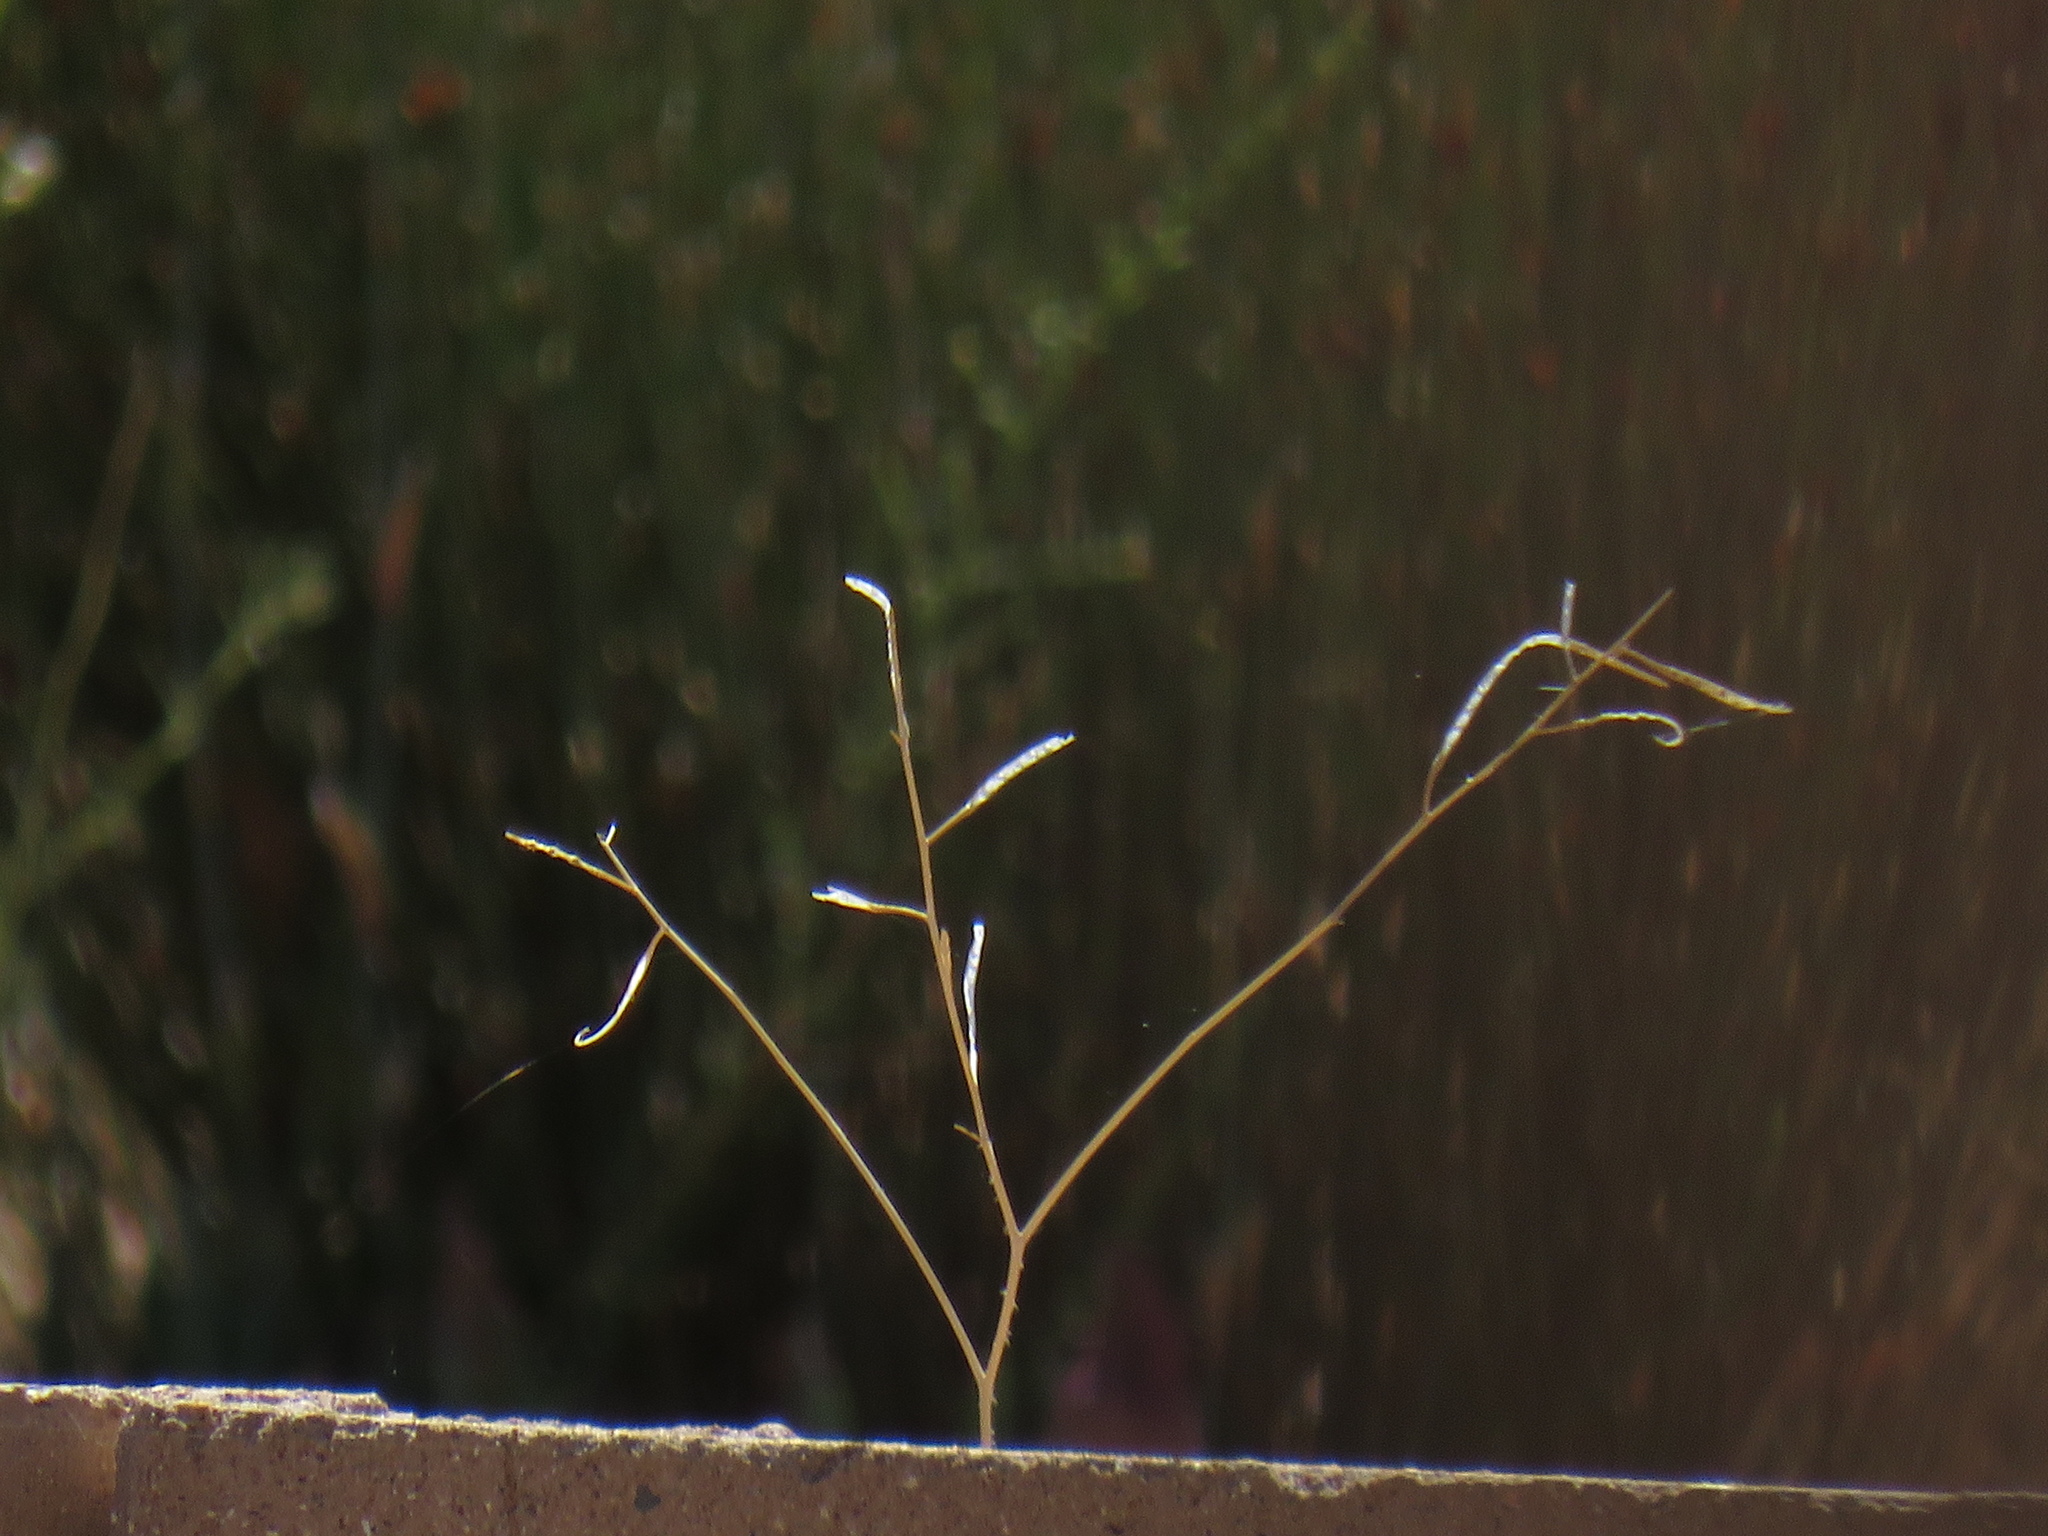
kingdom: Plantae
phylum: Tracheophyta
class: Magnoliopsida
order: Brassicales
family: Brassicaceae
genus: Brassica
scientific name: Brassica tournefortii
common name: Pale cabbage
